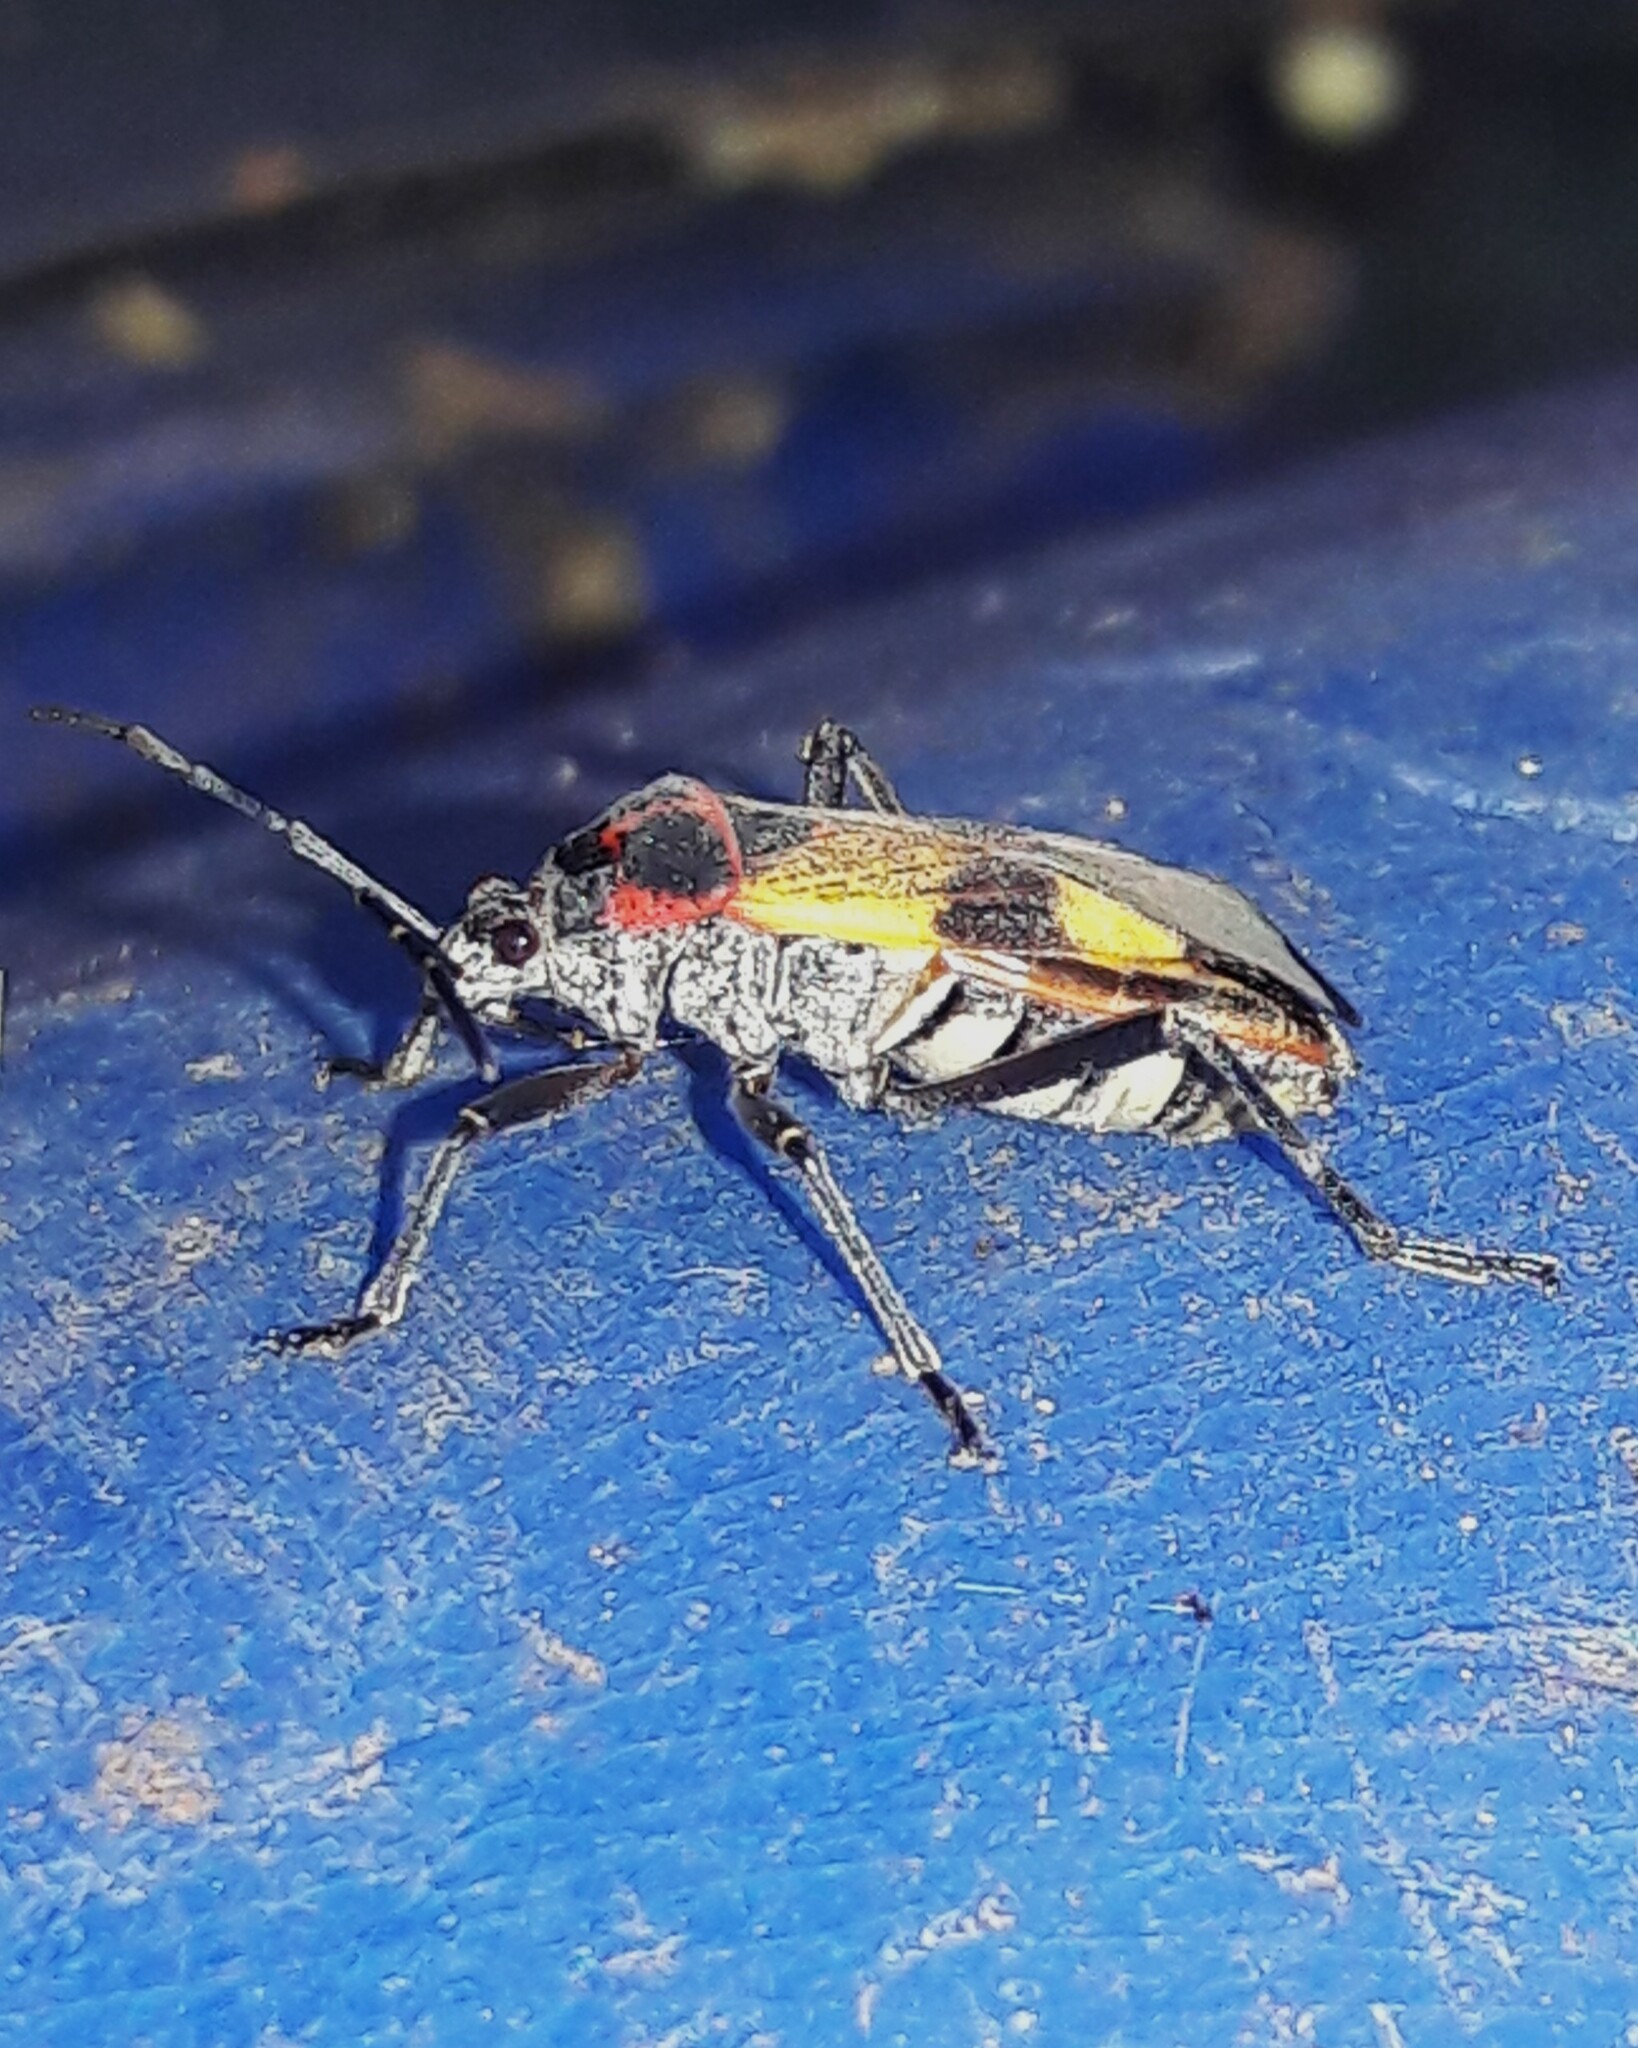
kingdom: Animalia
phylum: Arthropoda
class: Insecta
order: Hemiptera
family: Largidae
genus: Largus
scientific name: Largus ceblini
